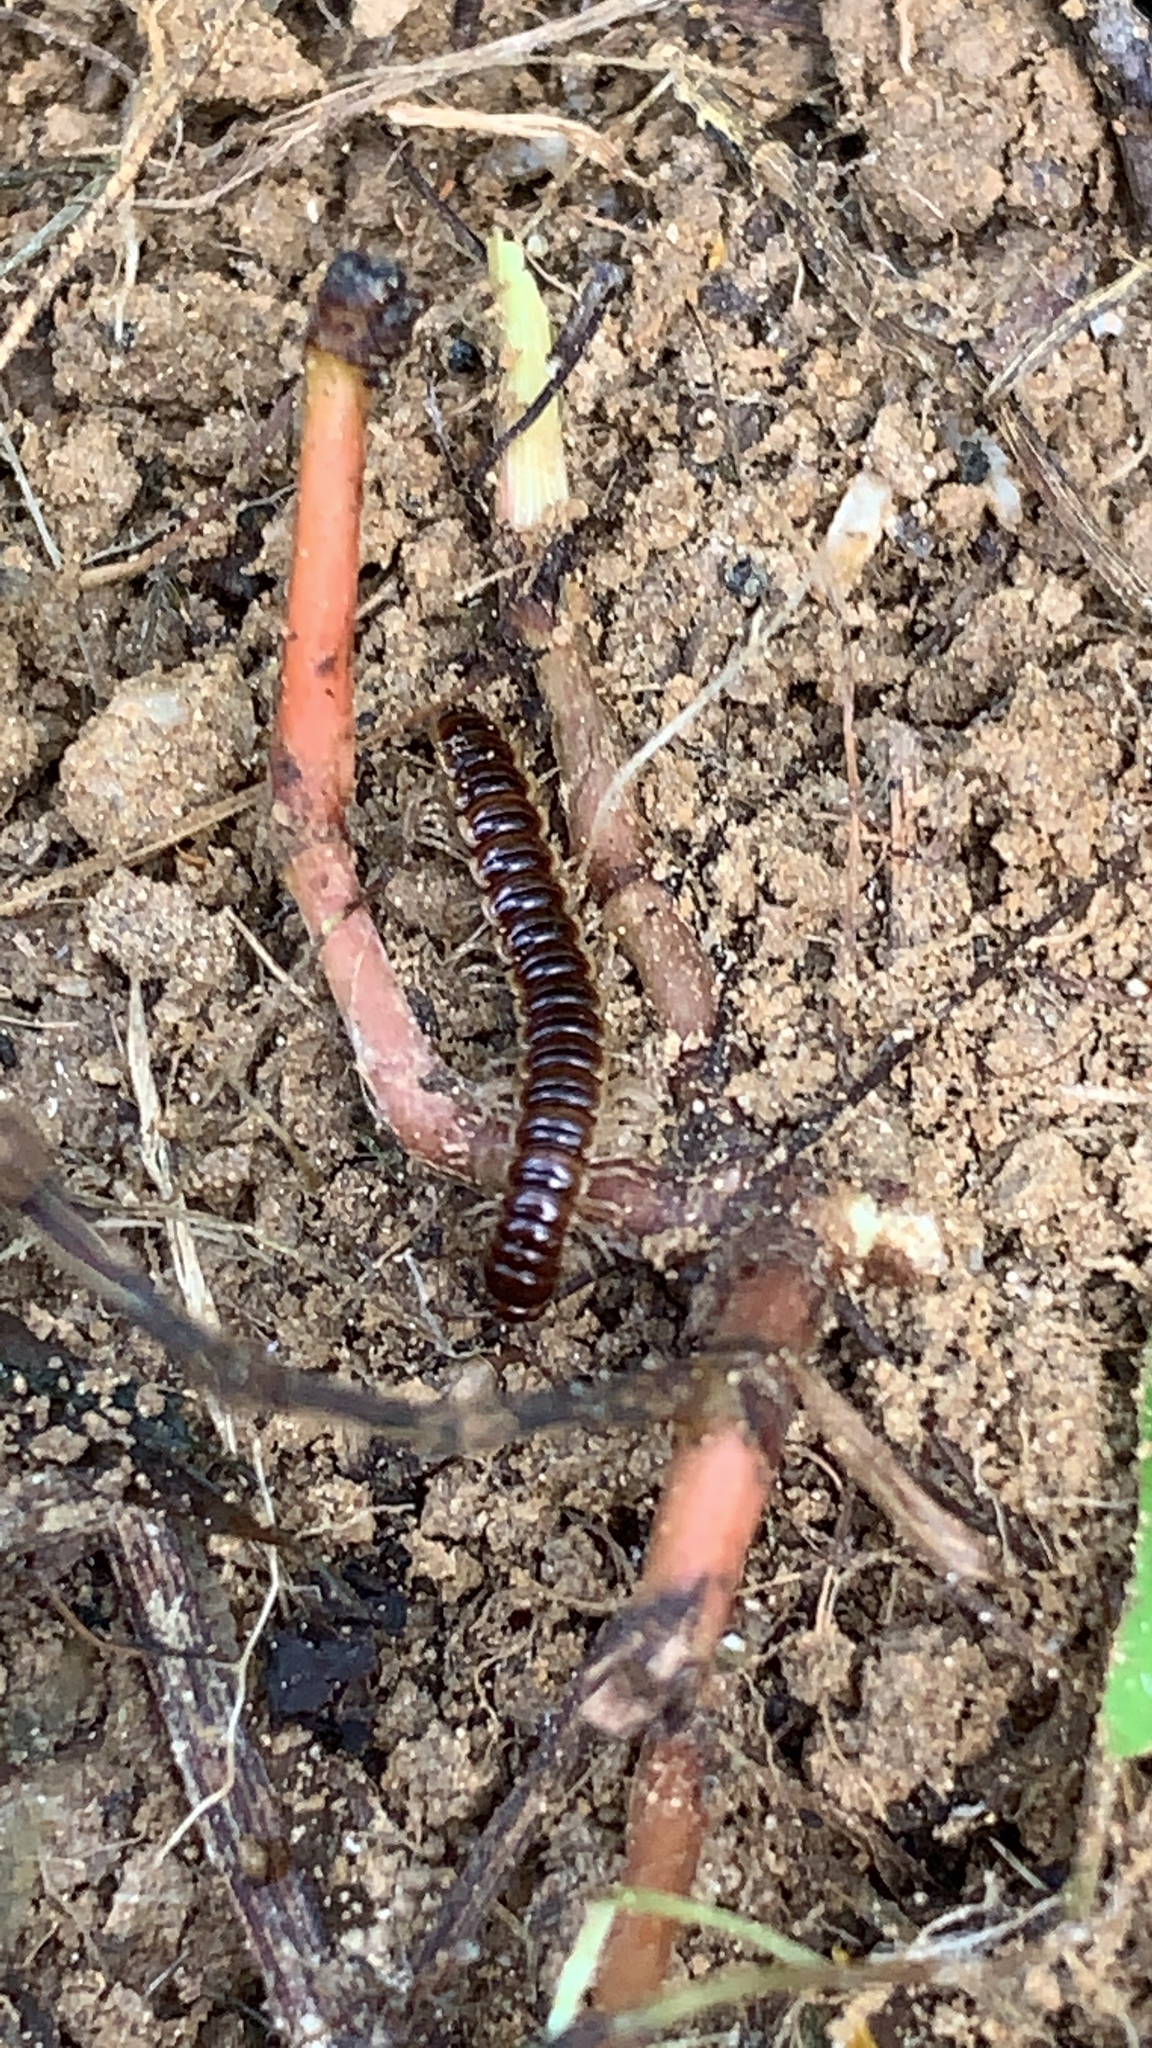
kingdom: Animalia
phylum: Arthropoda
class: Diplopoda
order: Polydesmida
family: Paradoxosomatidae
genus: Oxidus
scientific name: Oxidus gracilis
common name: Greenhouse millipede
